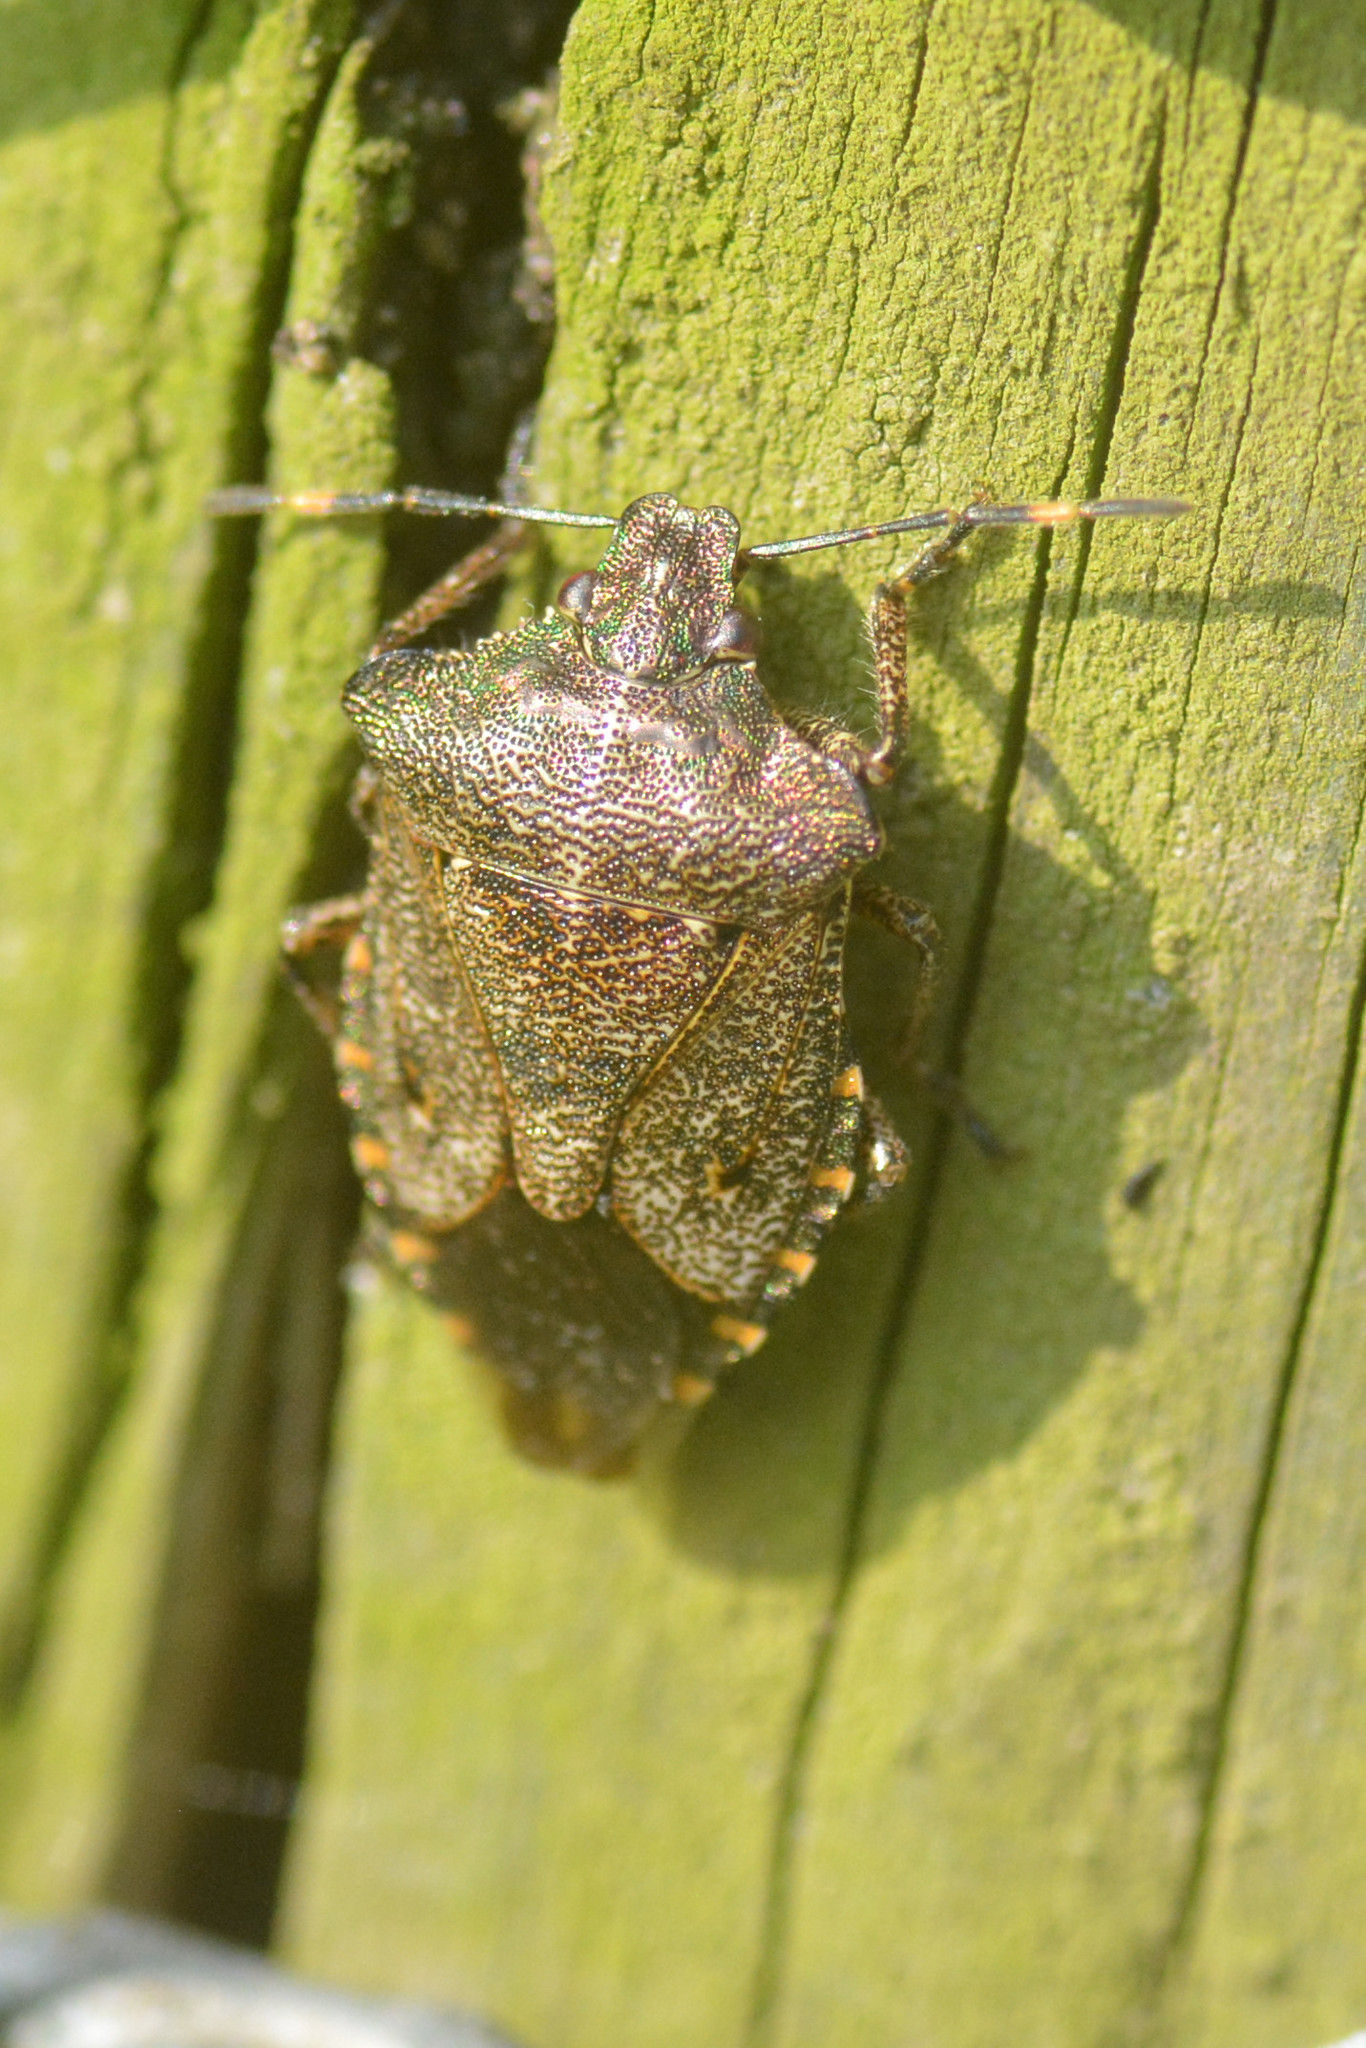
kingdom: Animalia
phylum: Arthropoda
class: Insecta
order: Hemiptera
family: Pentatomidae
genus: Troilus
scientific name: Troilus luridus
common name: Bronze shieldbug
